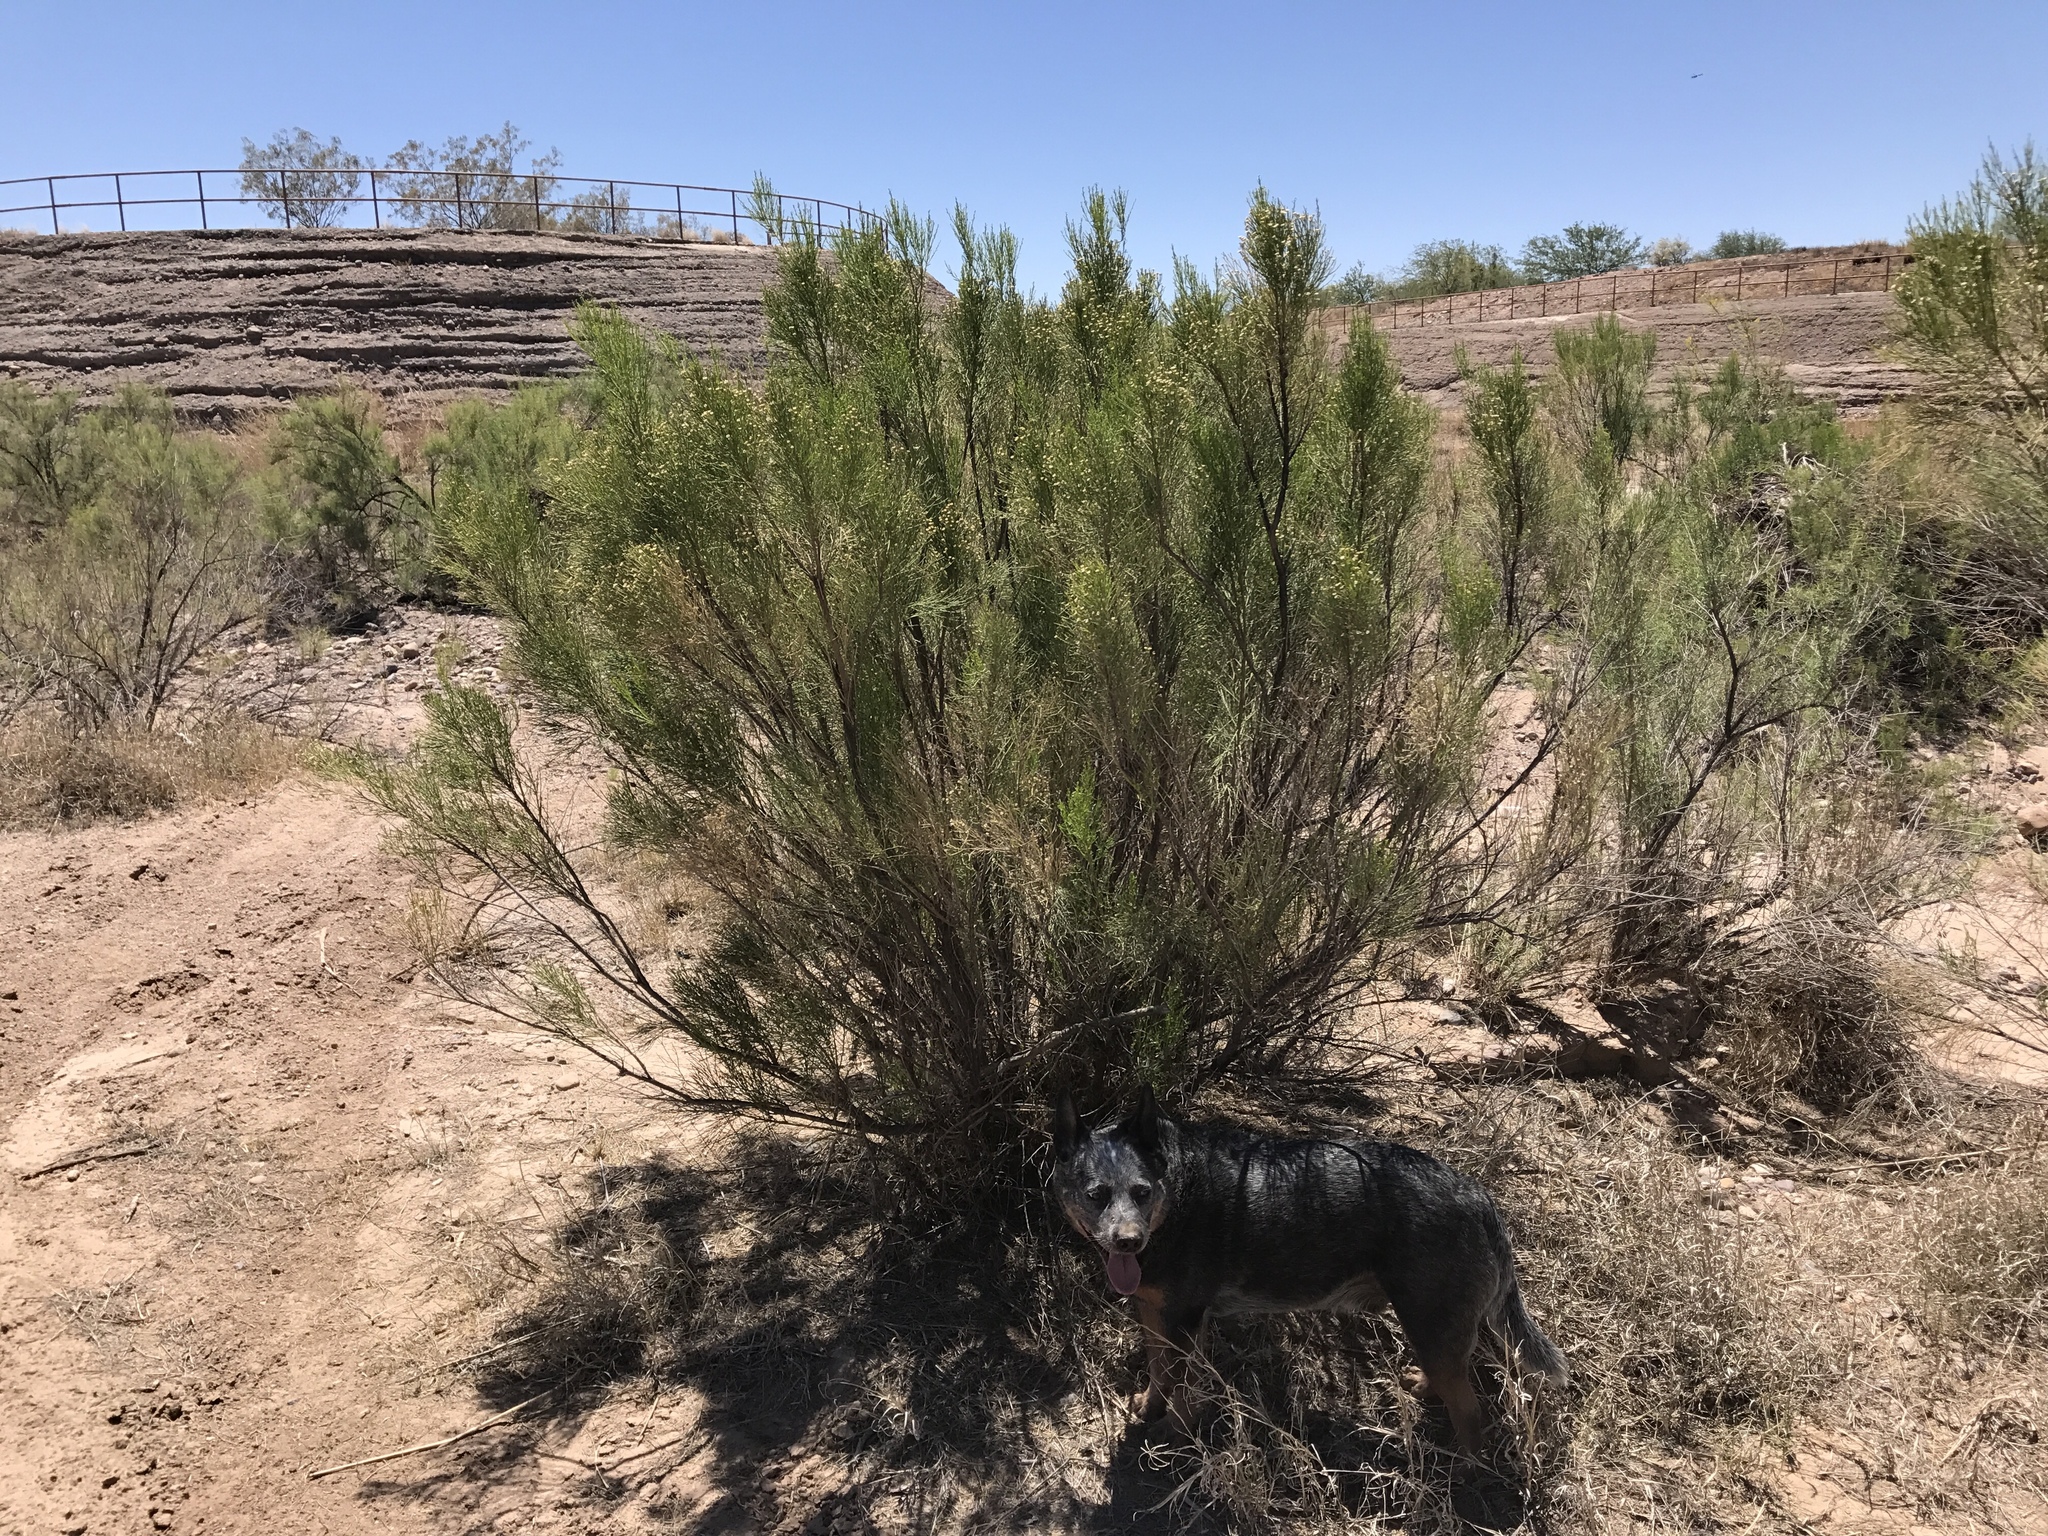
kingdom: Plantae
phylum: Tracheophyta
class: Magnoliopsida
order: Asterales
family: Asteraceae
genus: Baccharis
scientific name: Baccharis sarothroides
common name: Desert-broom
